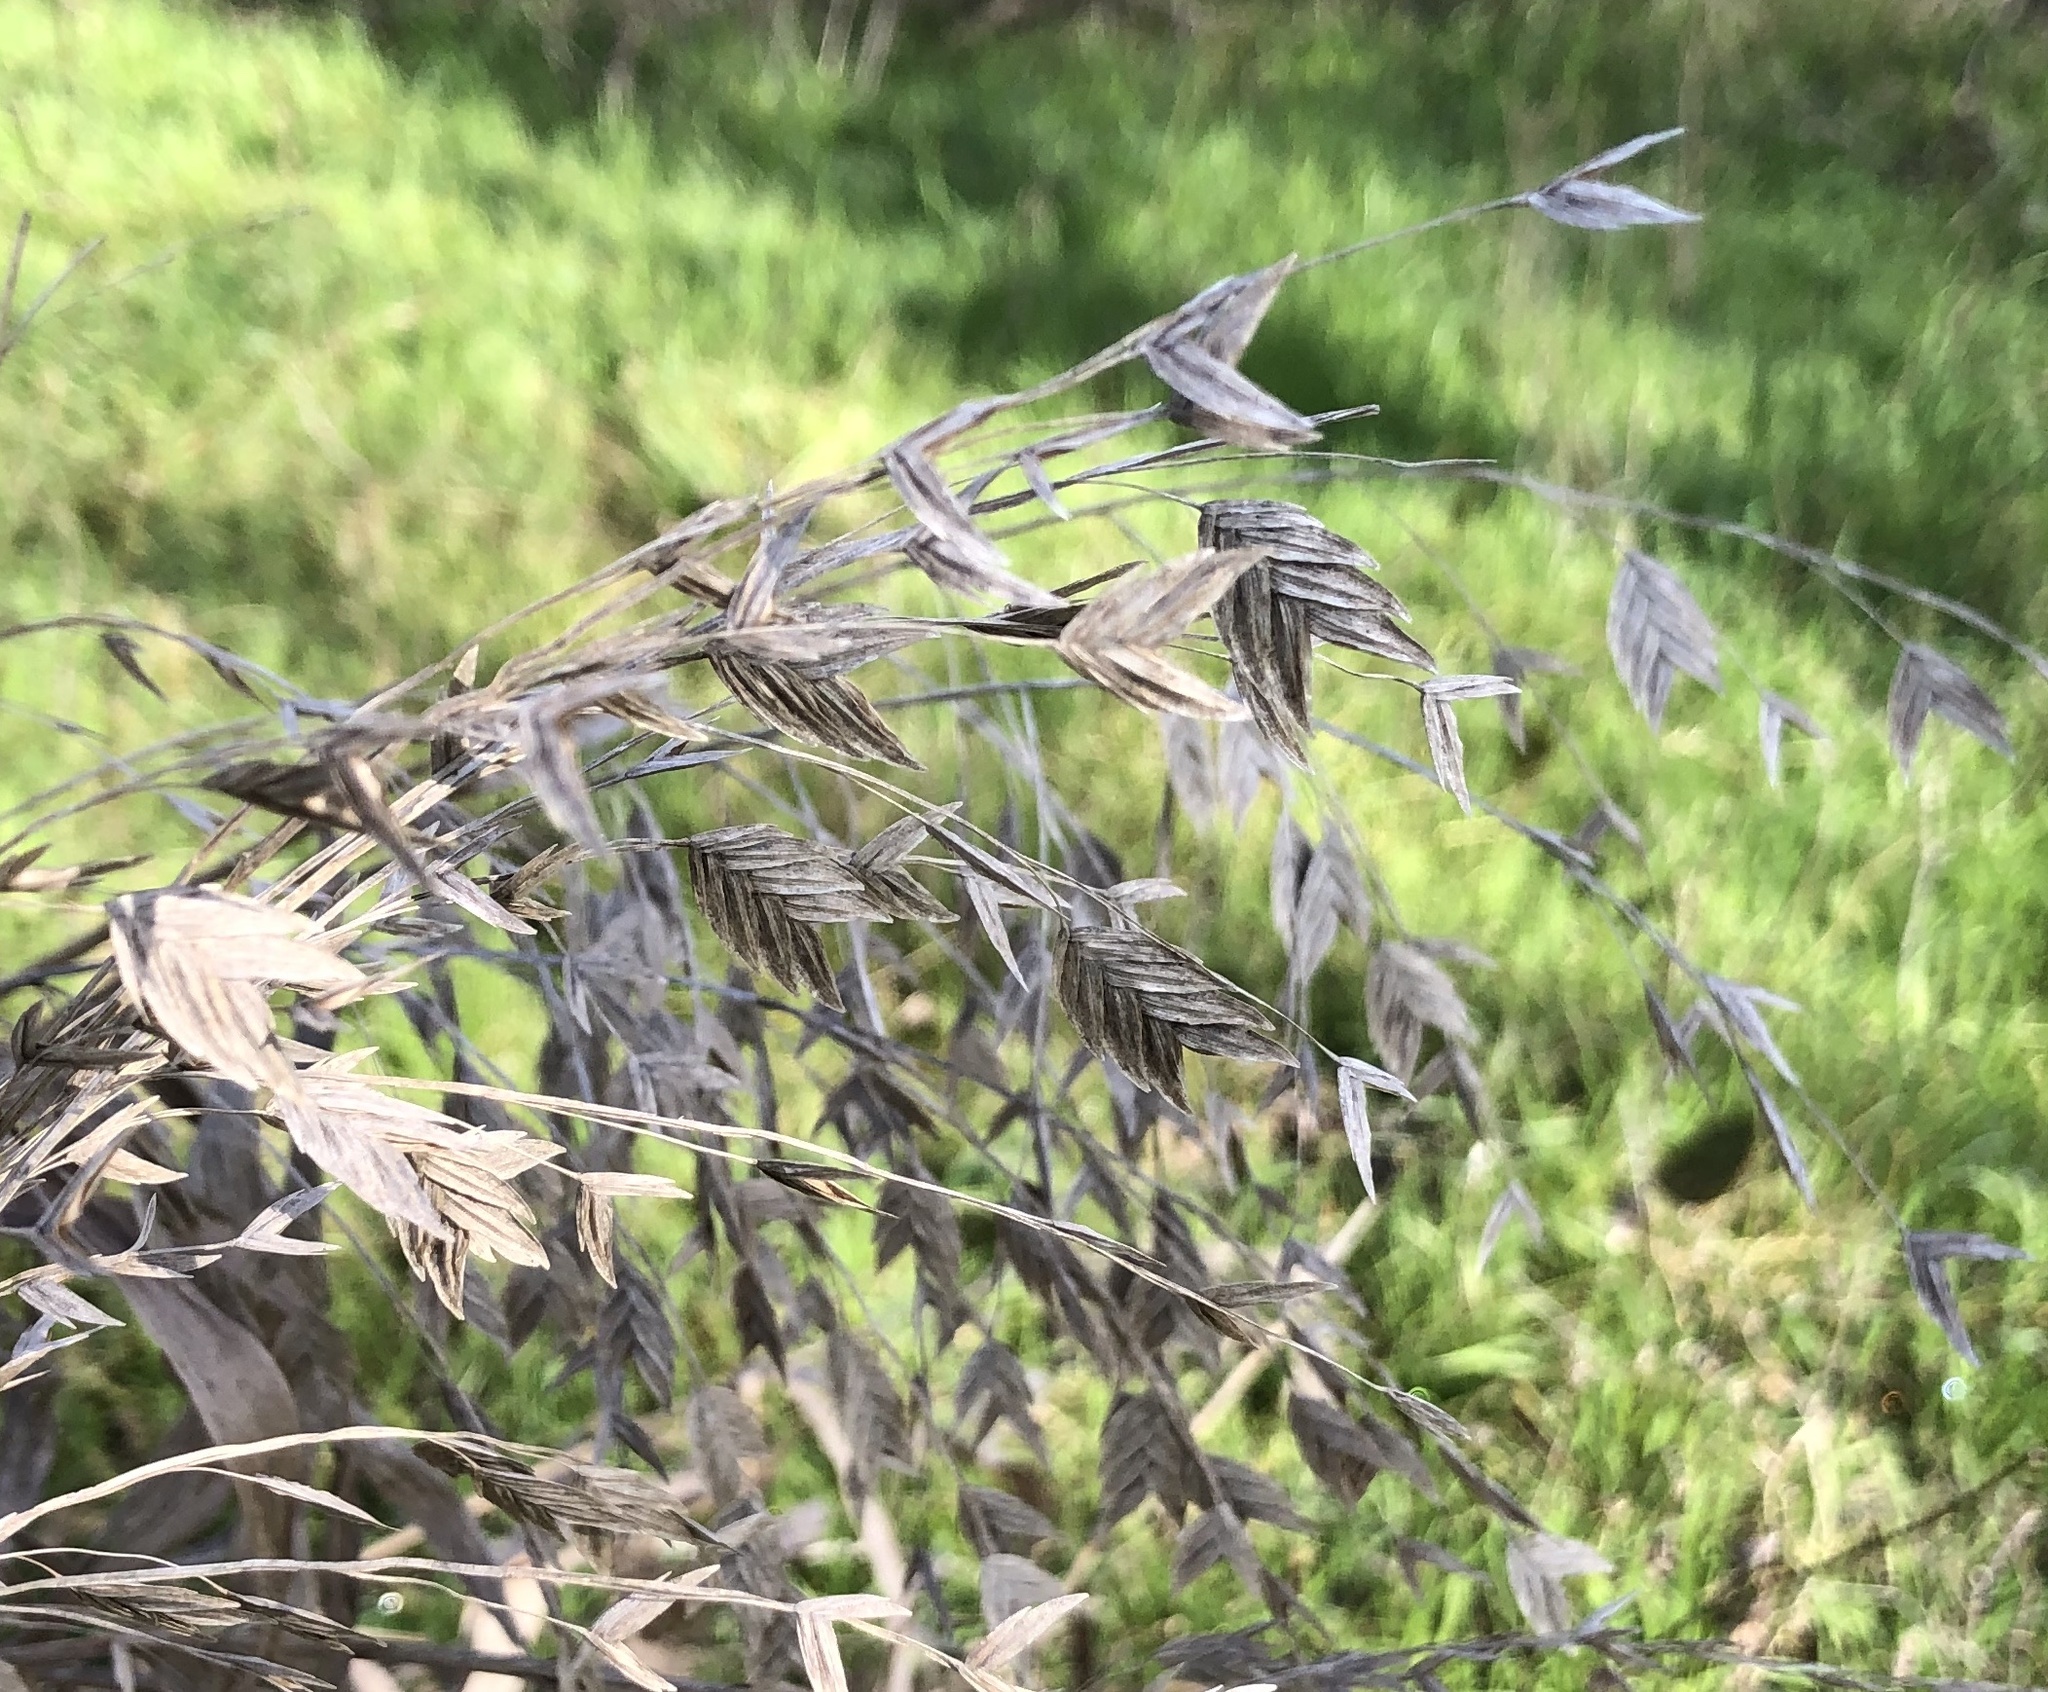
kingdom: Plantae
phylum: Tracheophyta
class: Liliopsida
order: Poales
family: Poaceae
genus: Chasmanthium
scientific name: Chasmanthium latifolium
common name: Broad-leaved chasmanthium
